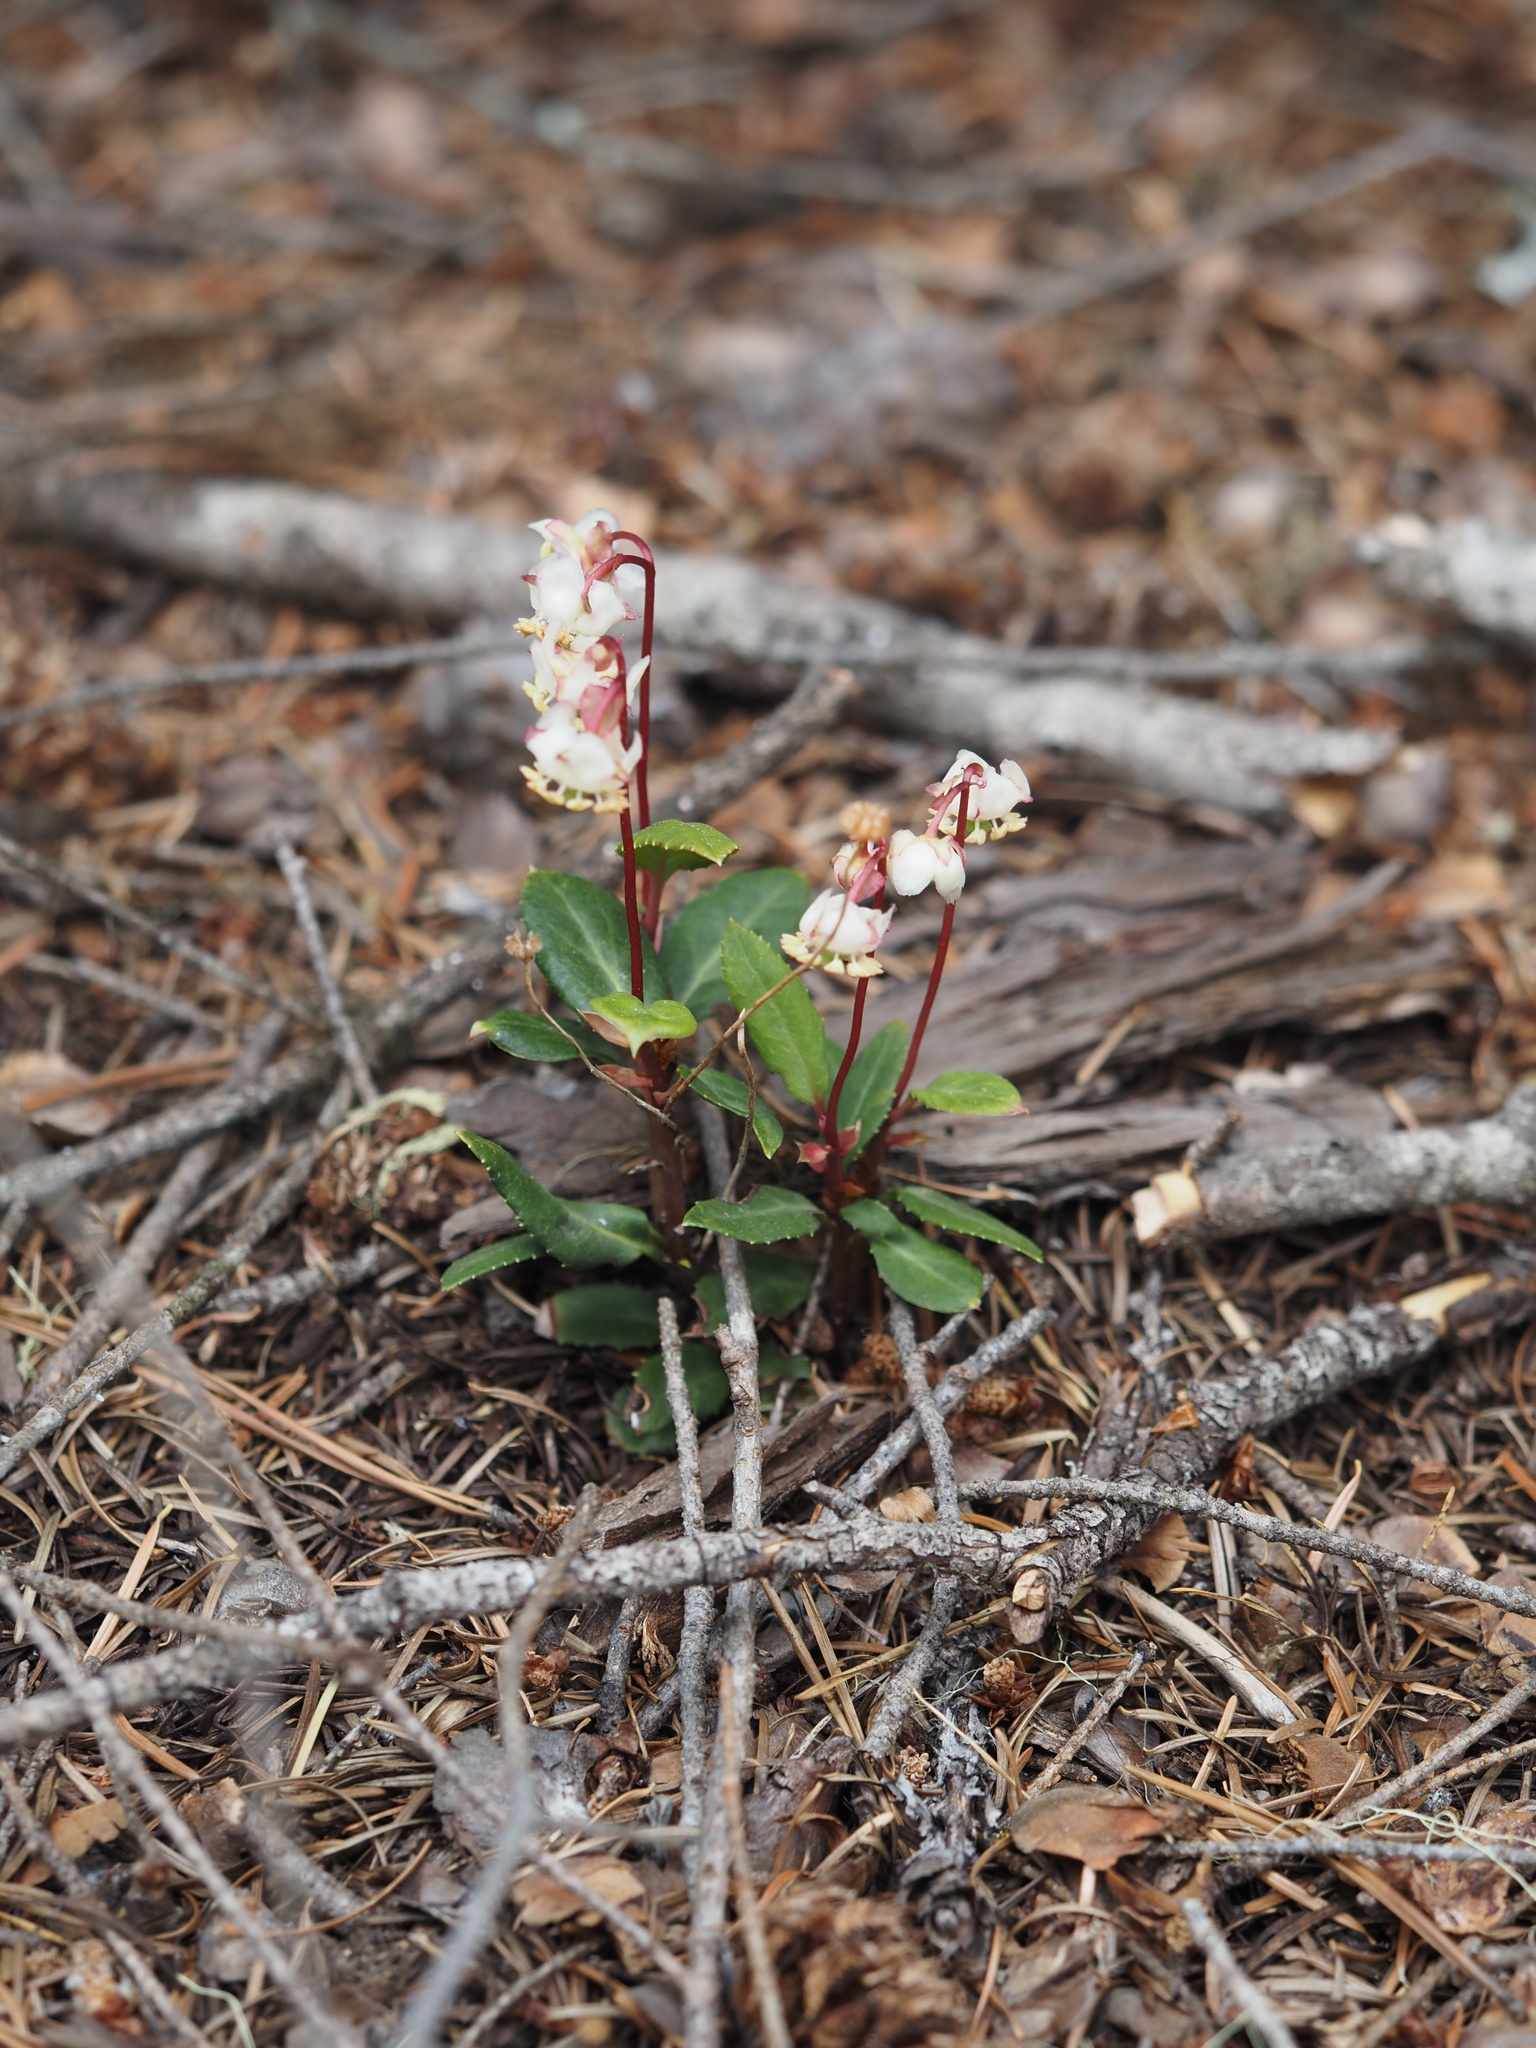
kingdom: Plantae
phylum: Tracheophyta
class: Magnoliopsida
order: Ericales
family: Ericaceae
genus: Chimaphila
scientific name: Chimaphila menziesii
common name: Menzies' pipsissewa
